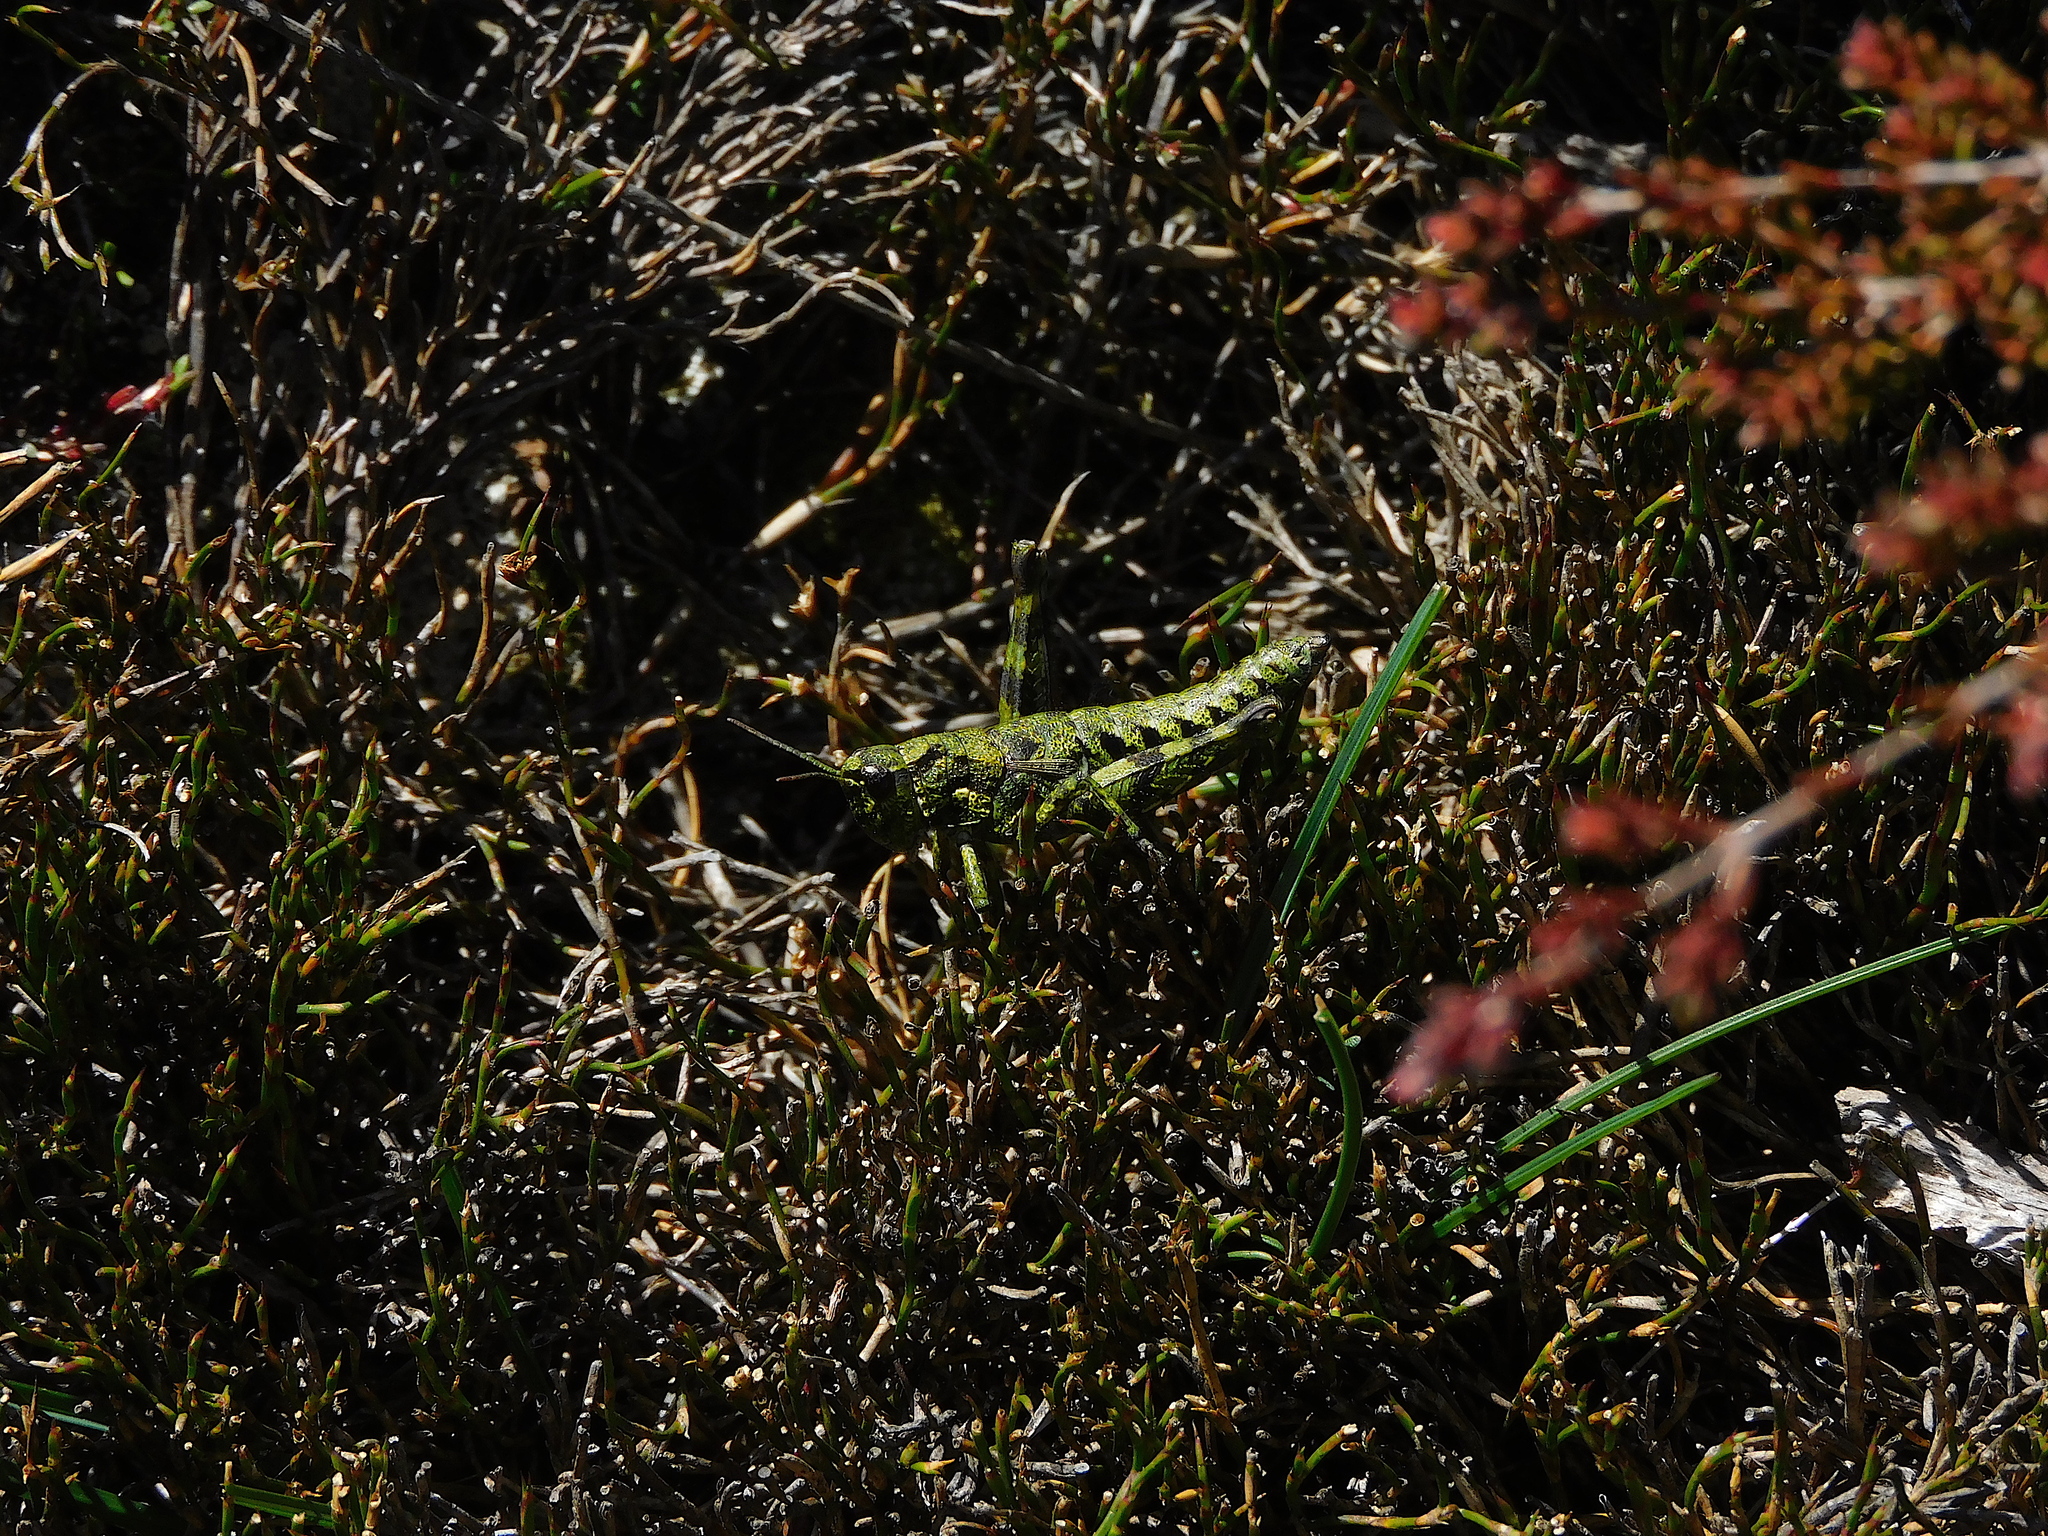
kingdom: Animalia
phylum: Arthropoda
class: Insecta
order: Orthoptera
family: Acrididae
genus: Tasmaniacris
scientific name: Tasmaniacris tasmaniensis
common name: Tasmanian grasshopper
